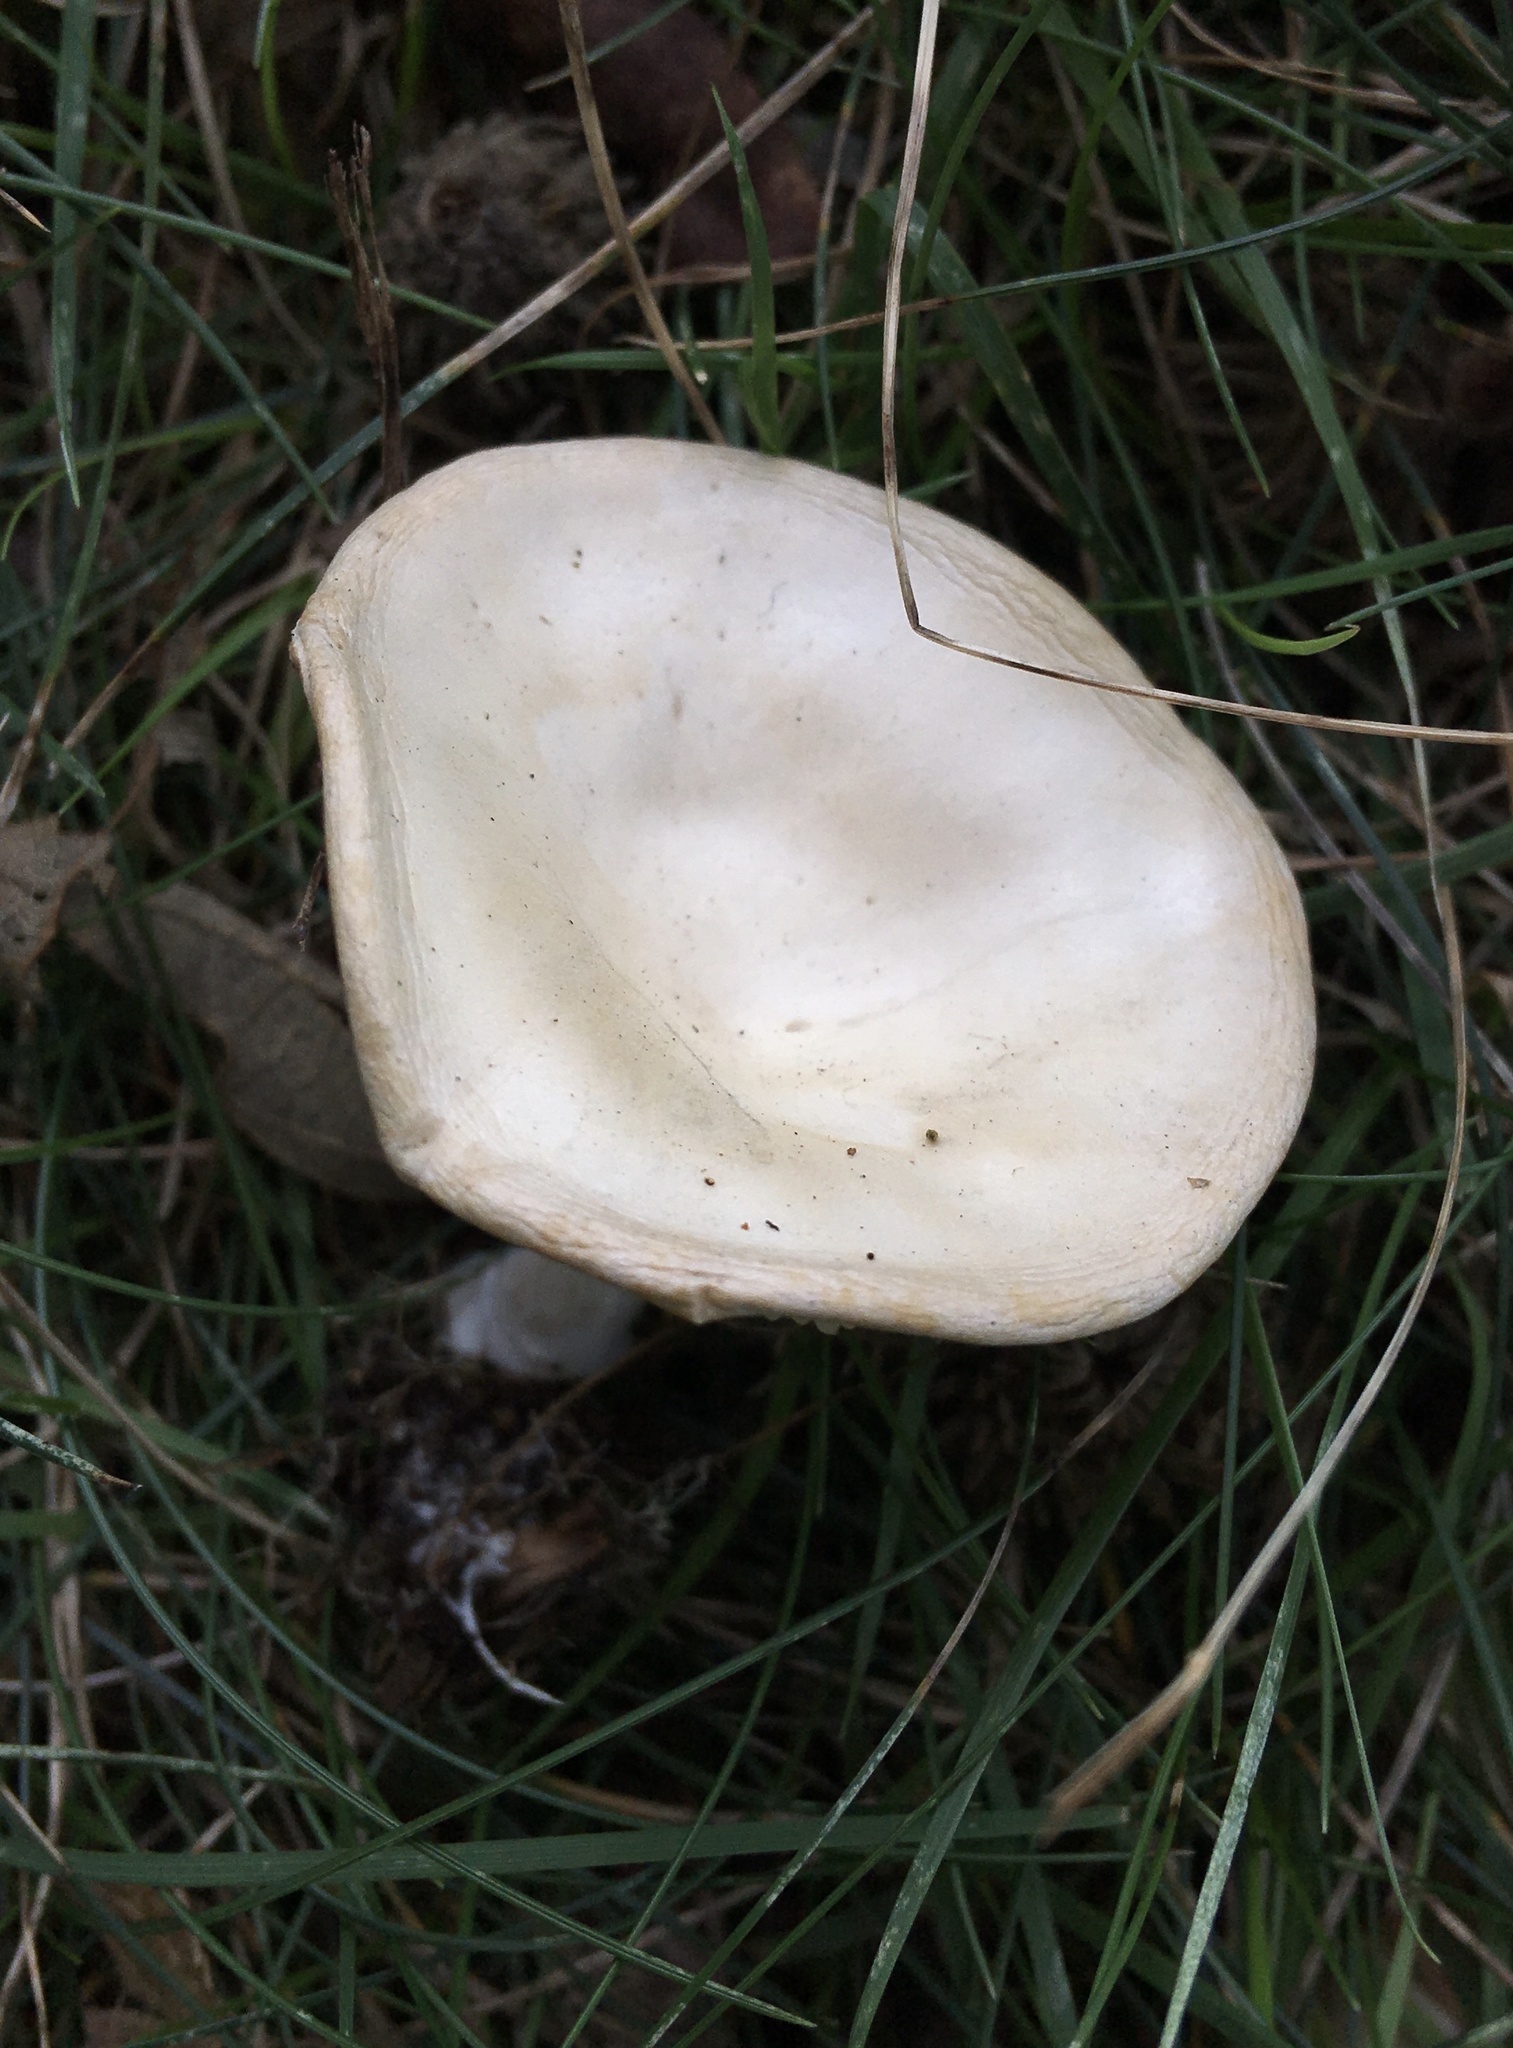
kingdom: Fungi
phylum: Basidiomycota
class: Agaricomycetes
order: Agaricales
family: Tricholomataceae
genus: Collybia
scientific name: Collybia
